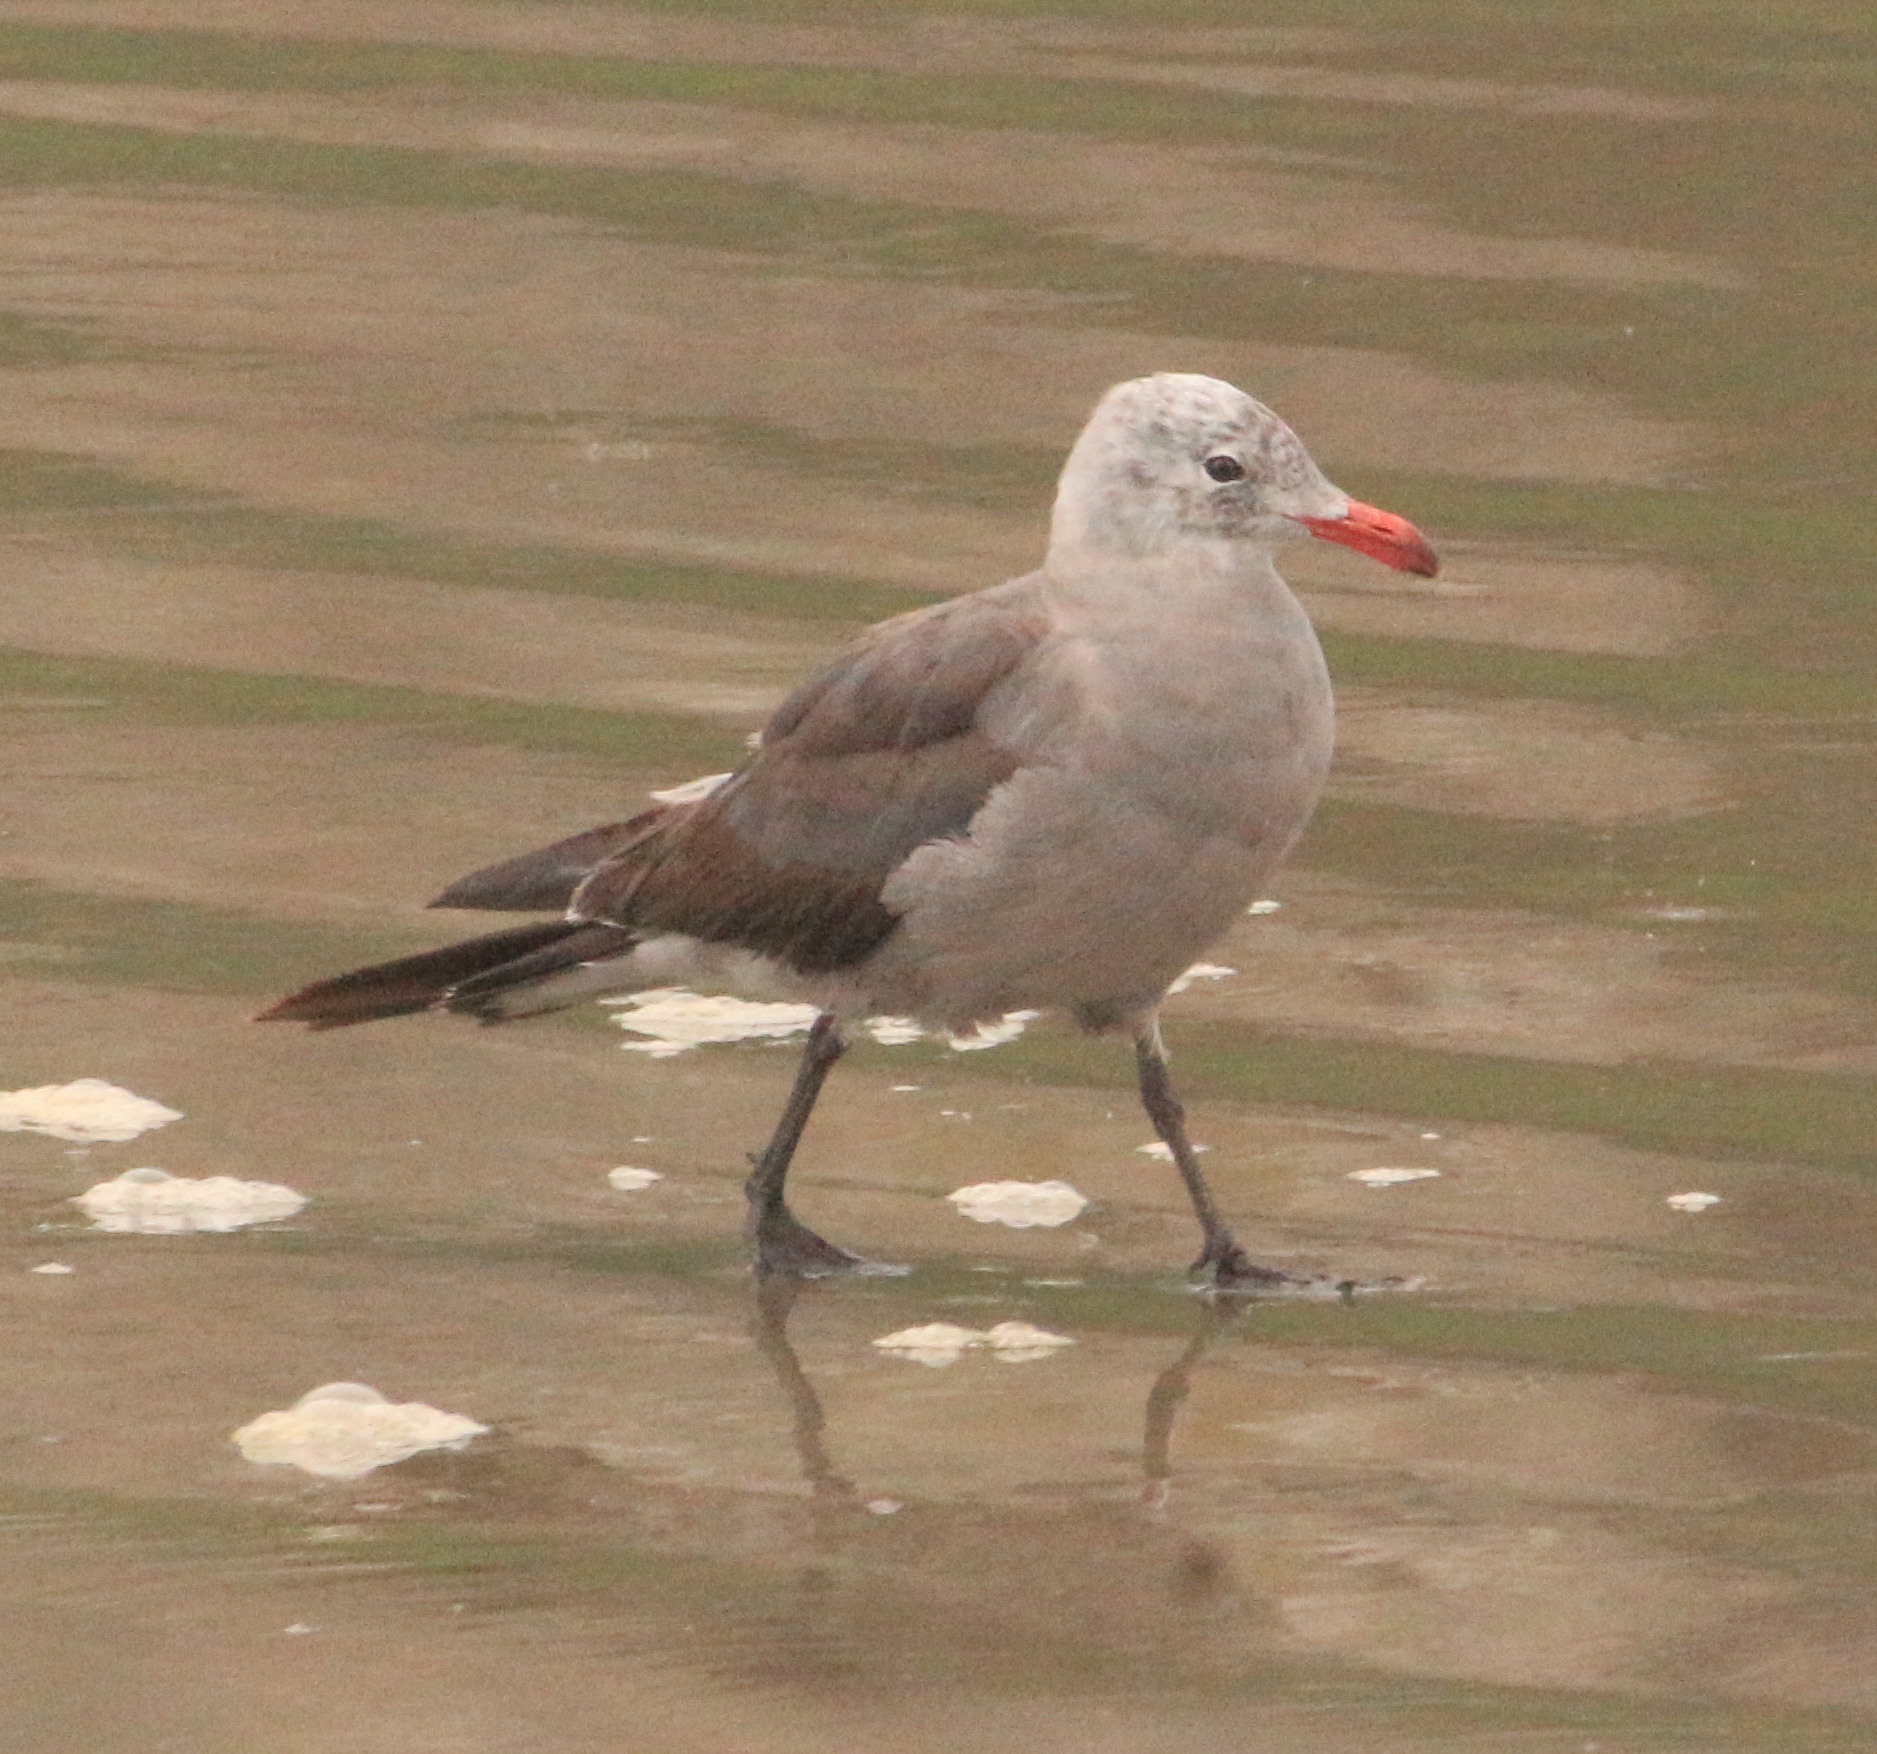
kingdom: Animalia
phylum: Chordata
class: Aves
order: Charadriiformes
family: Laridae
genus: Larus
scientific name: Larus heermanni
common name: Heermann's gull
